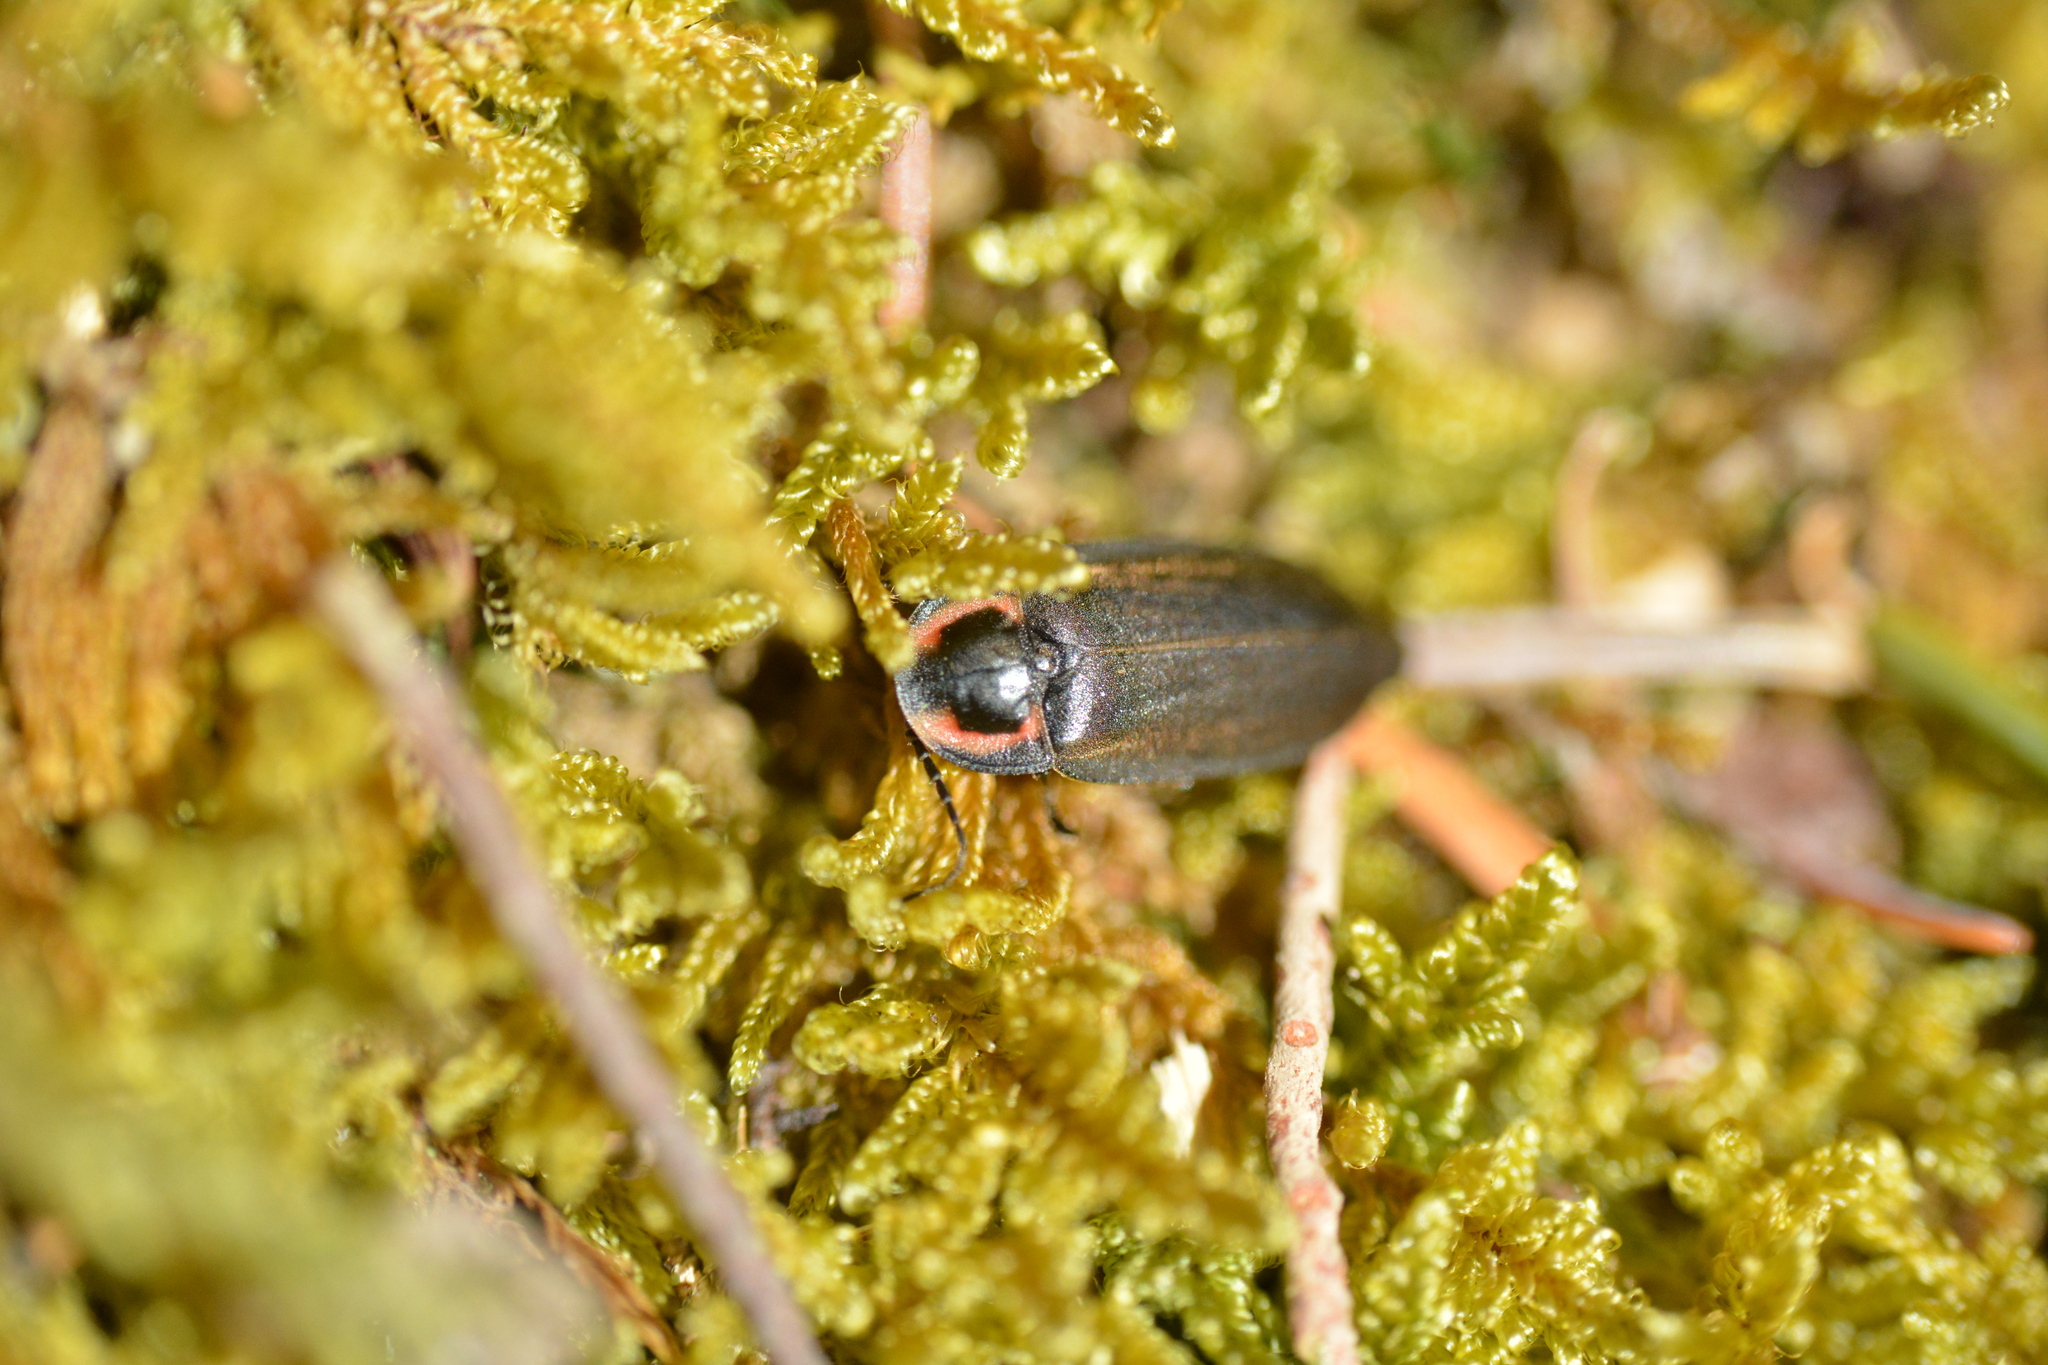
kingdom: Animalia
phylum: Arthropoda
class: Insecta
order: Coleoptera
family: Lampyridae
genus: Photinus
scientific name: Photinus corrusca
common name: Winter firefly
